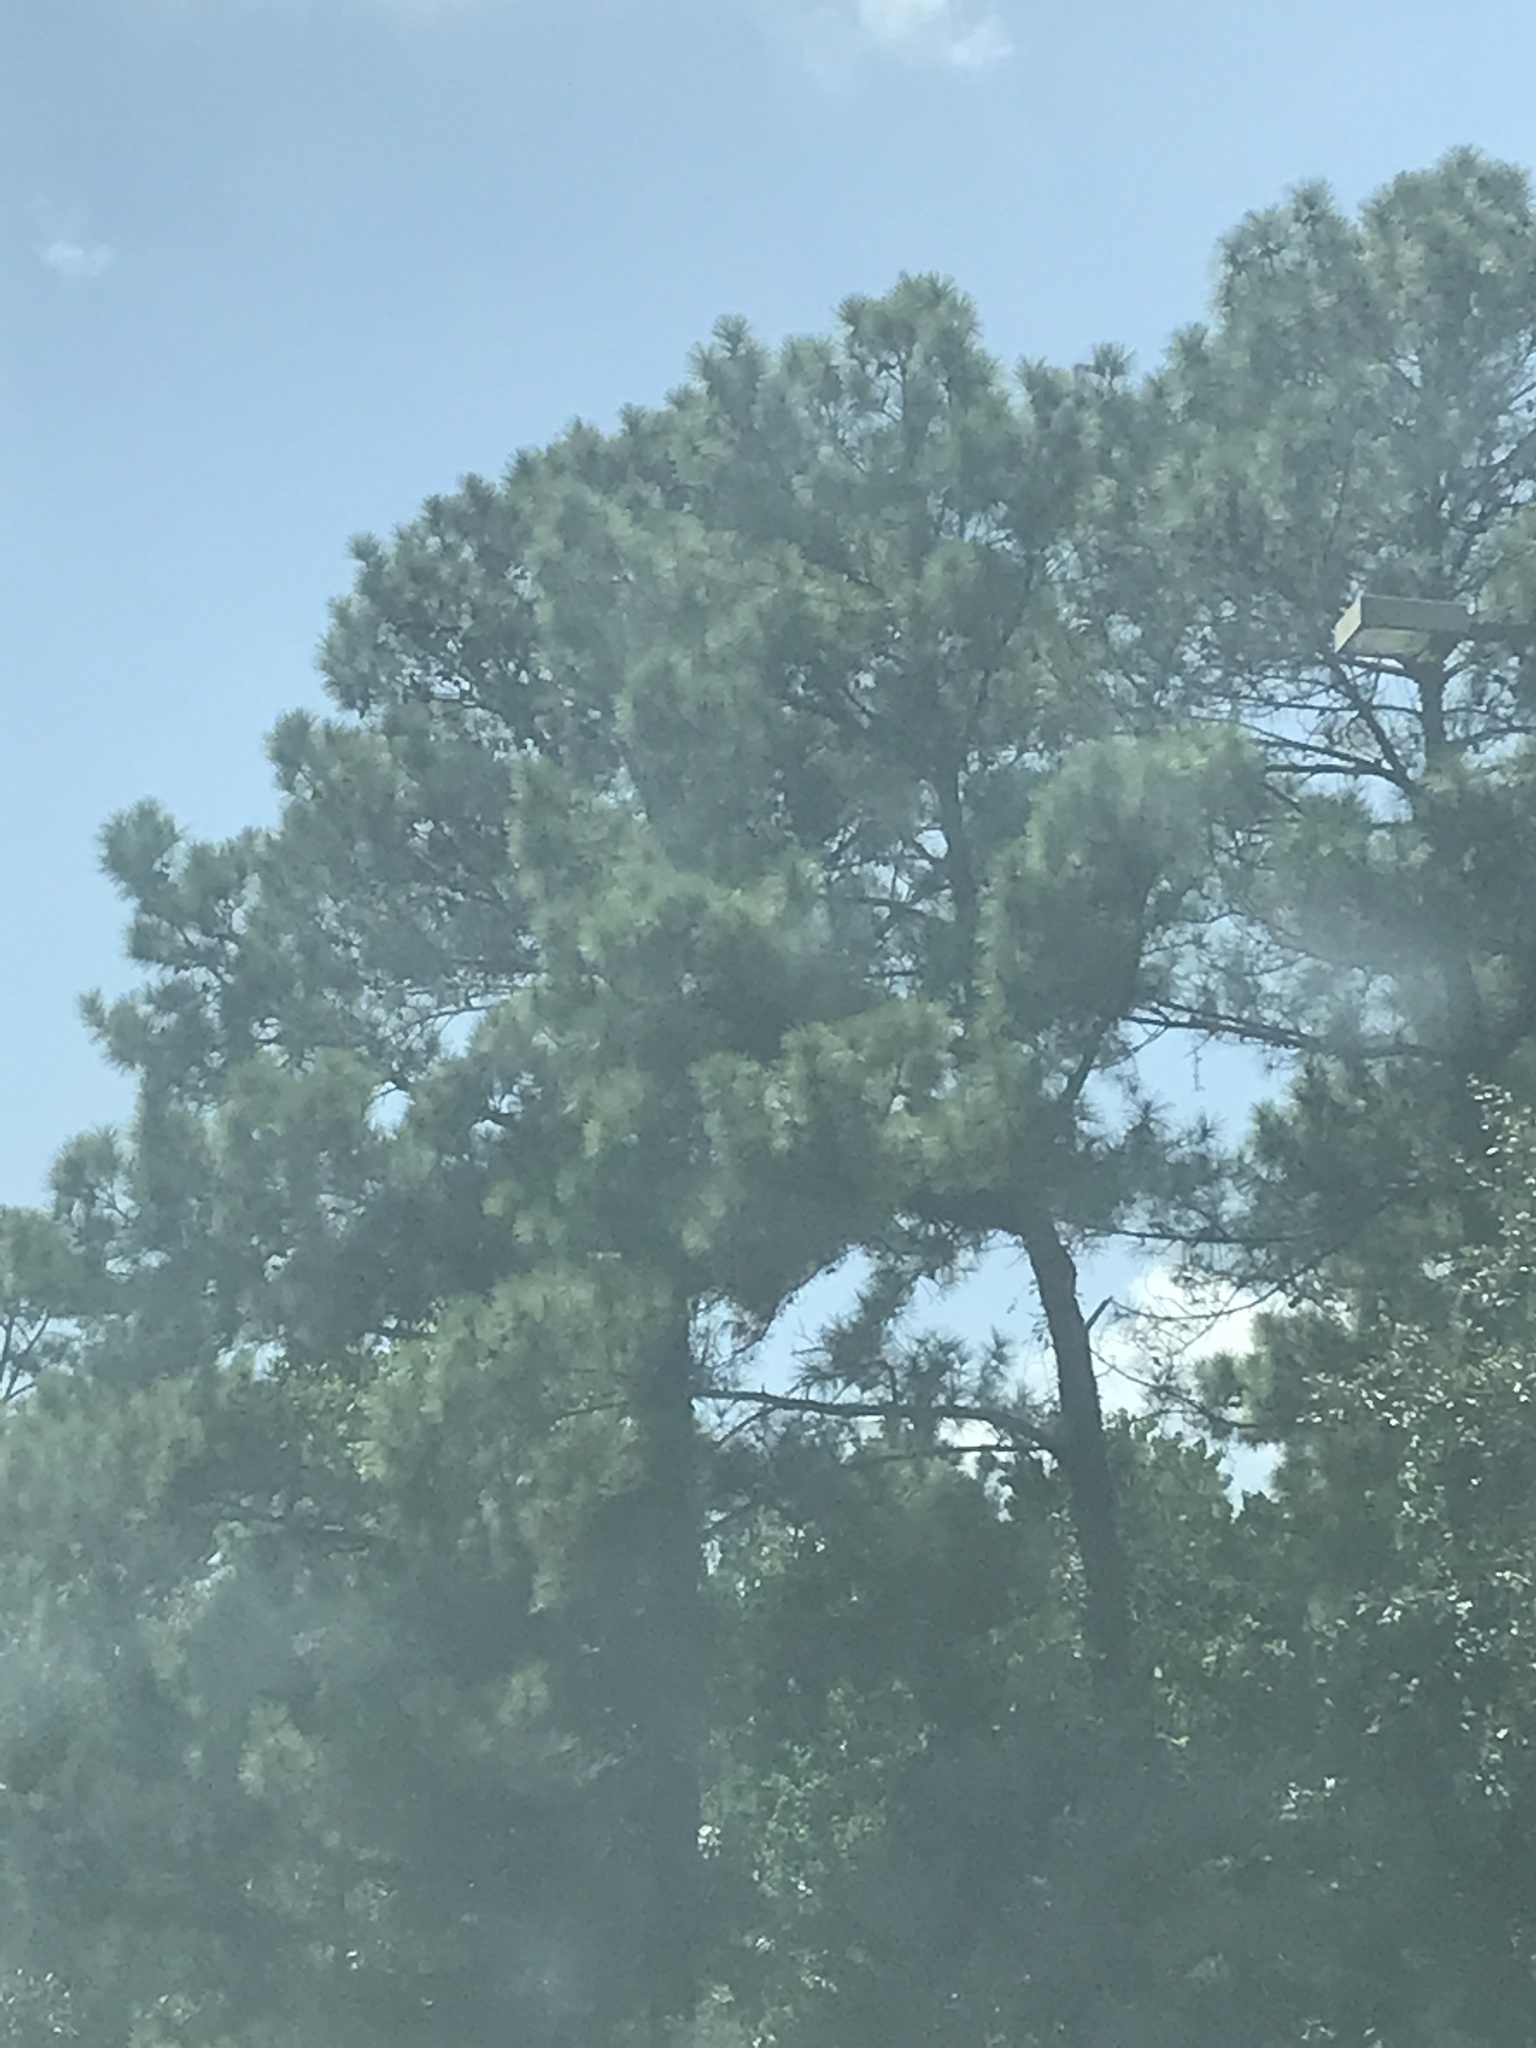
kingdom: Plantae
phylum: Tracheophyta
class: Pinopsida
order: Pinales
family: Pinaceae
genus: Pinus
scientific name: Pinus taeda
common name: Loblolly pine
